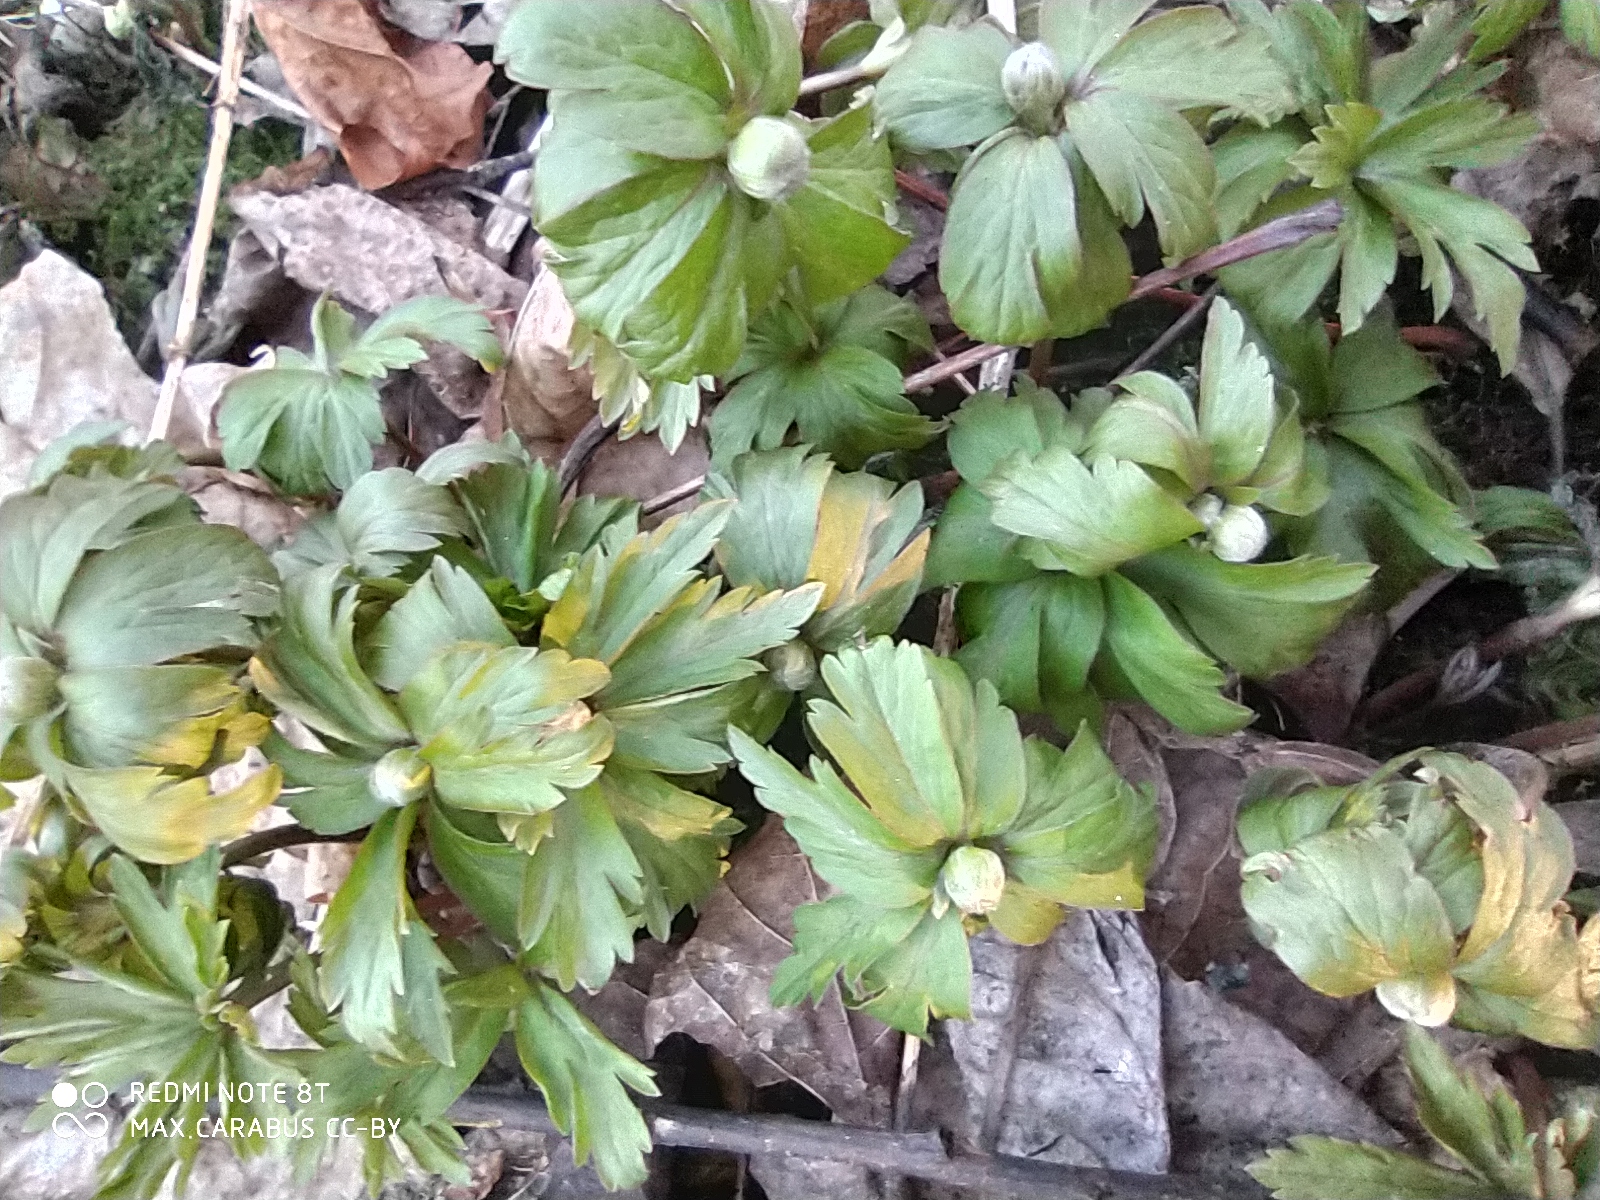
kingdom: Plantae
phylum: Tracheophyta
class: Magnoliopsida
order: Ranunculales
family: Ranunculaceae
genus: Anemone
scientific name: Anemone ranunculoides
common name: Yellow anemone
